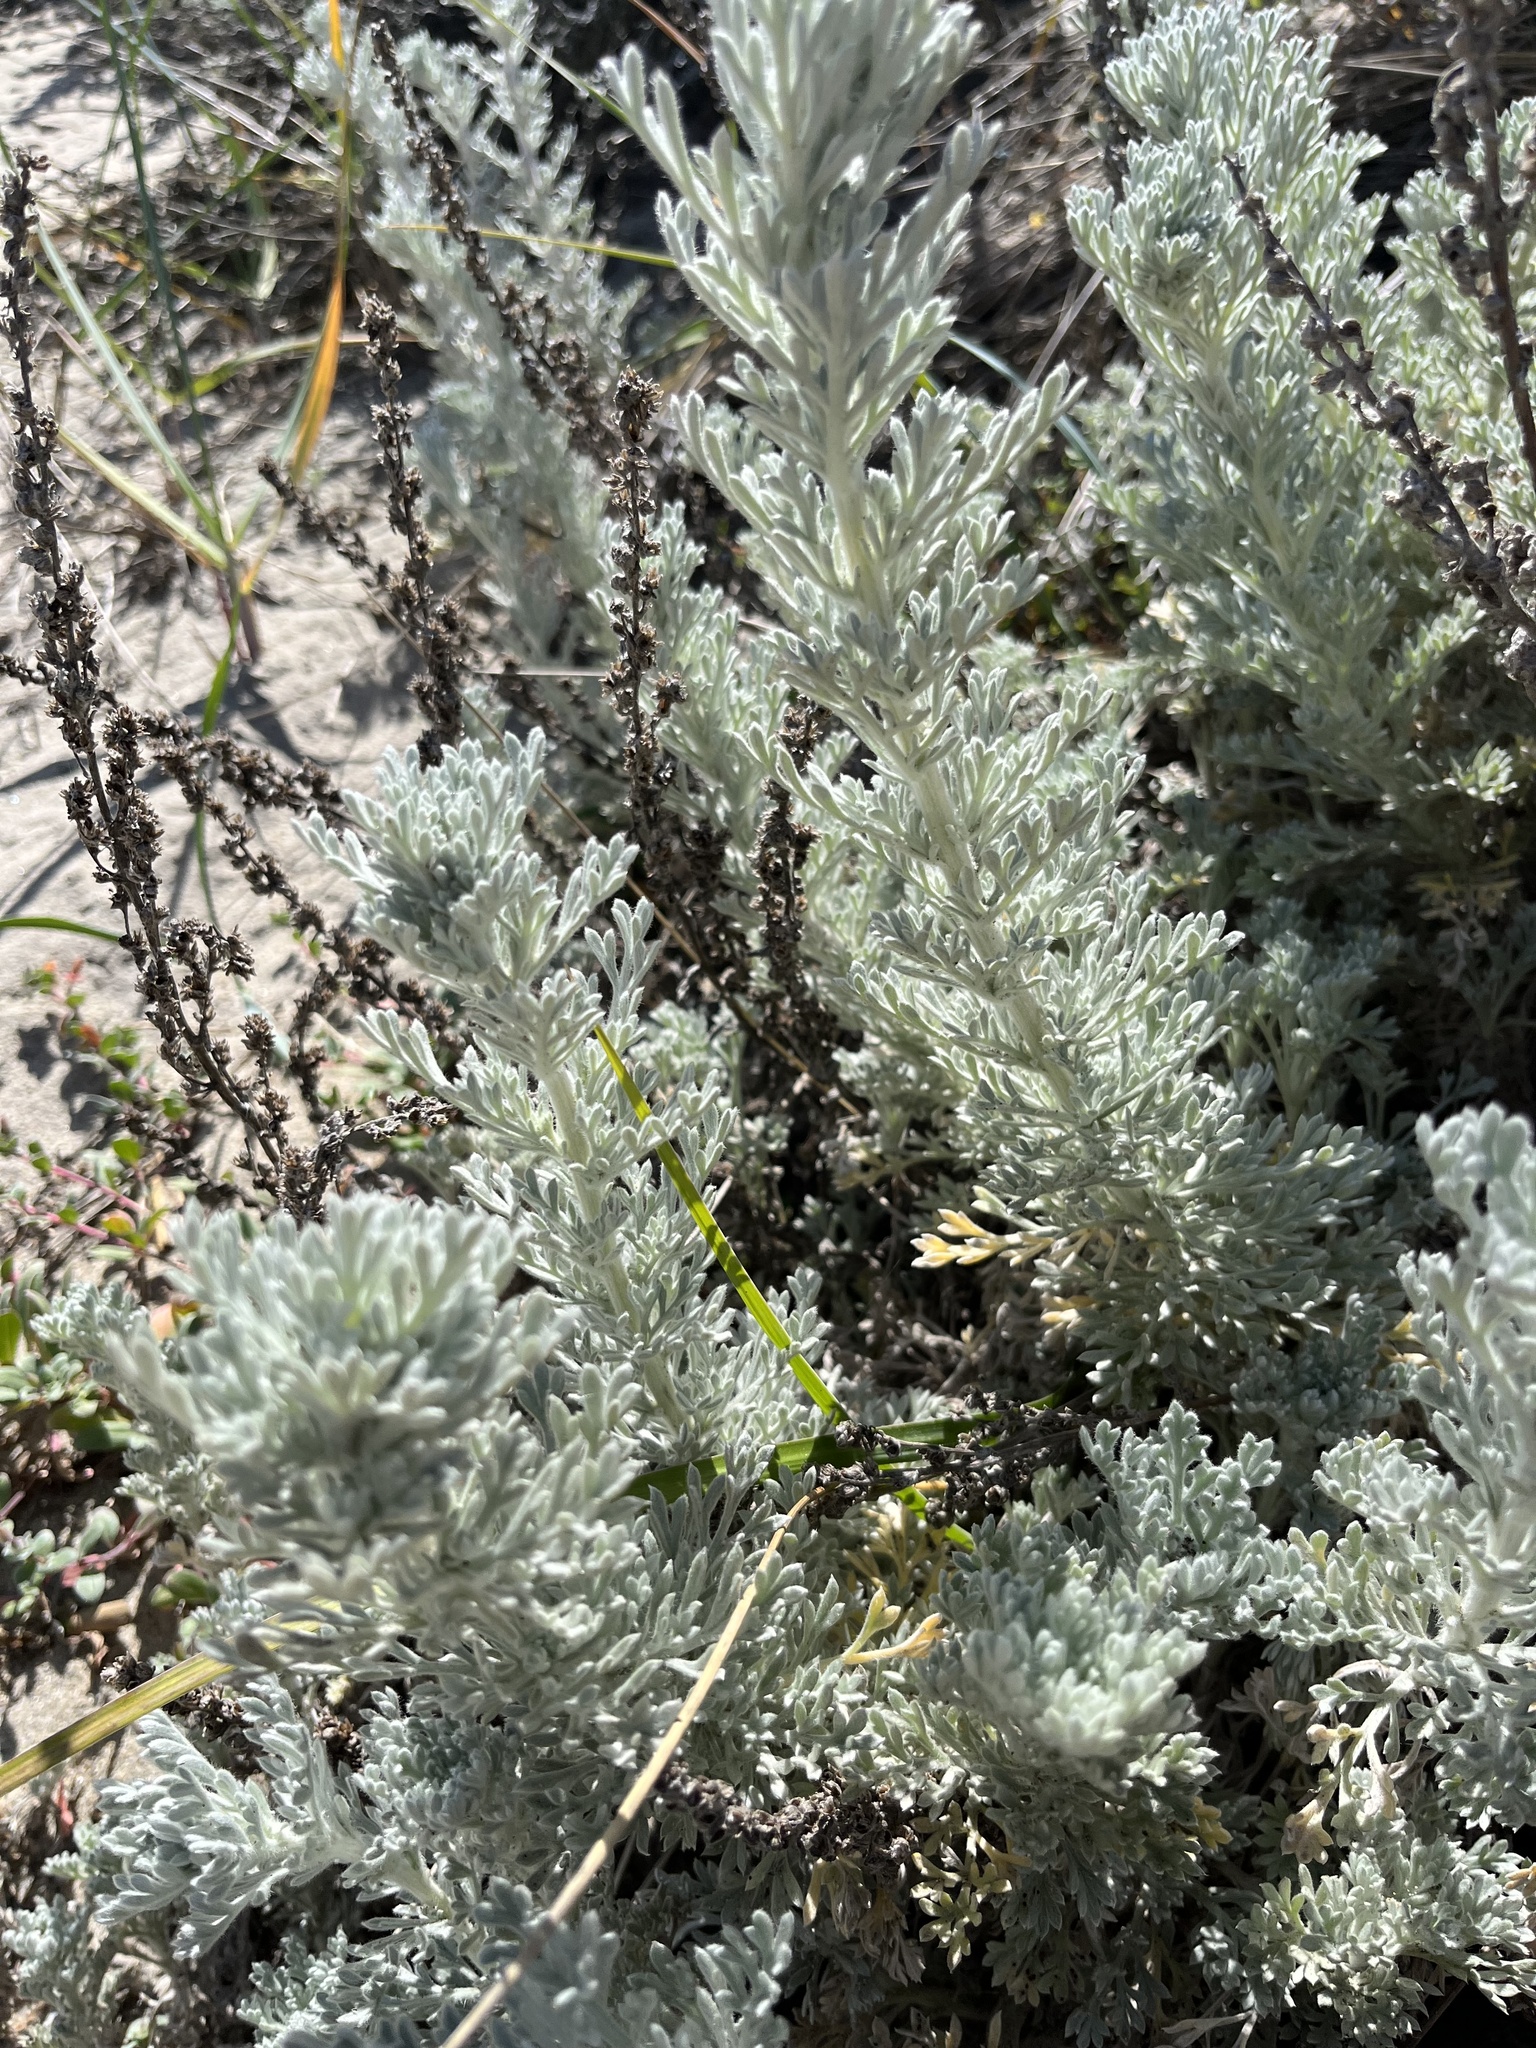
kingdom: Plantae
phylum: Tracheophyta
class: Magnoliopsida
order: Asterales
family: Asteraceae
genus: Artemisia
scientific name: Artemisia pycnocephala
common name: Coastal sagewort
